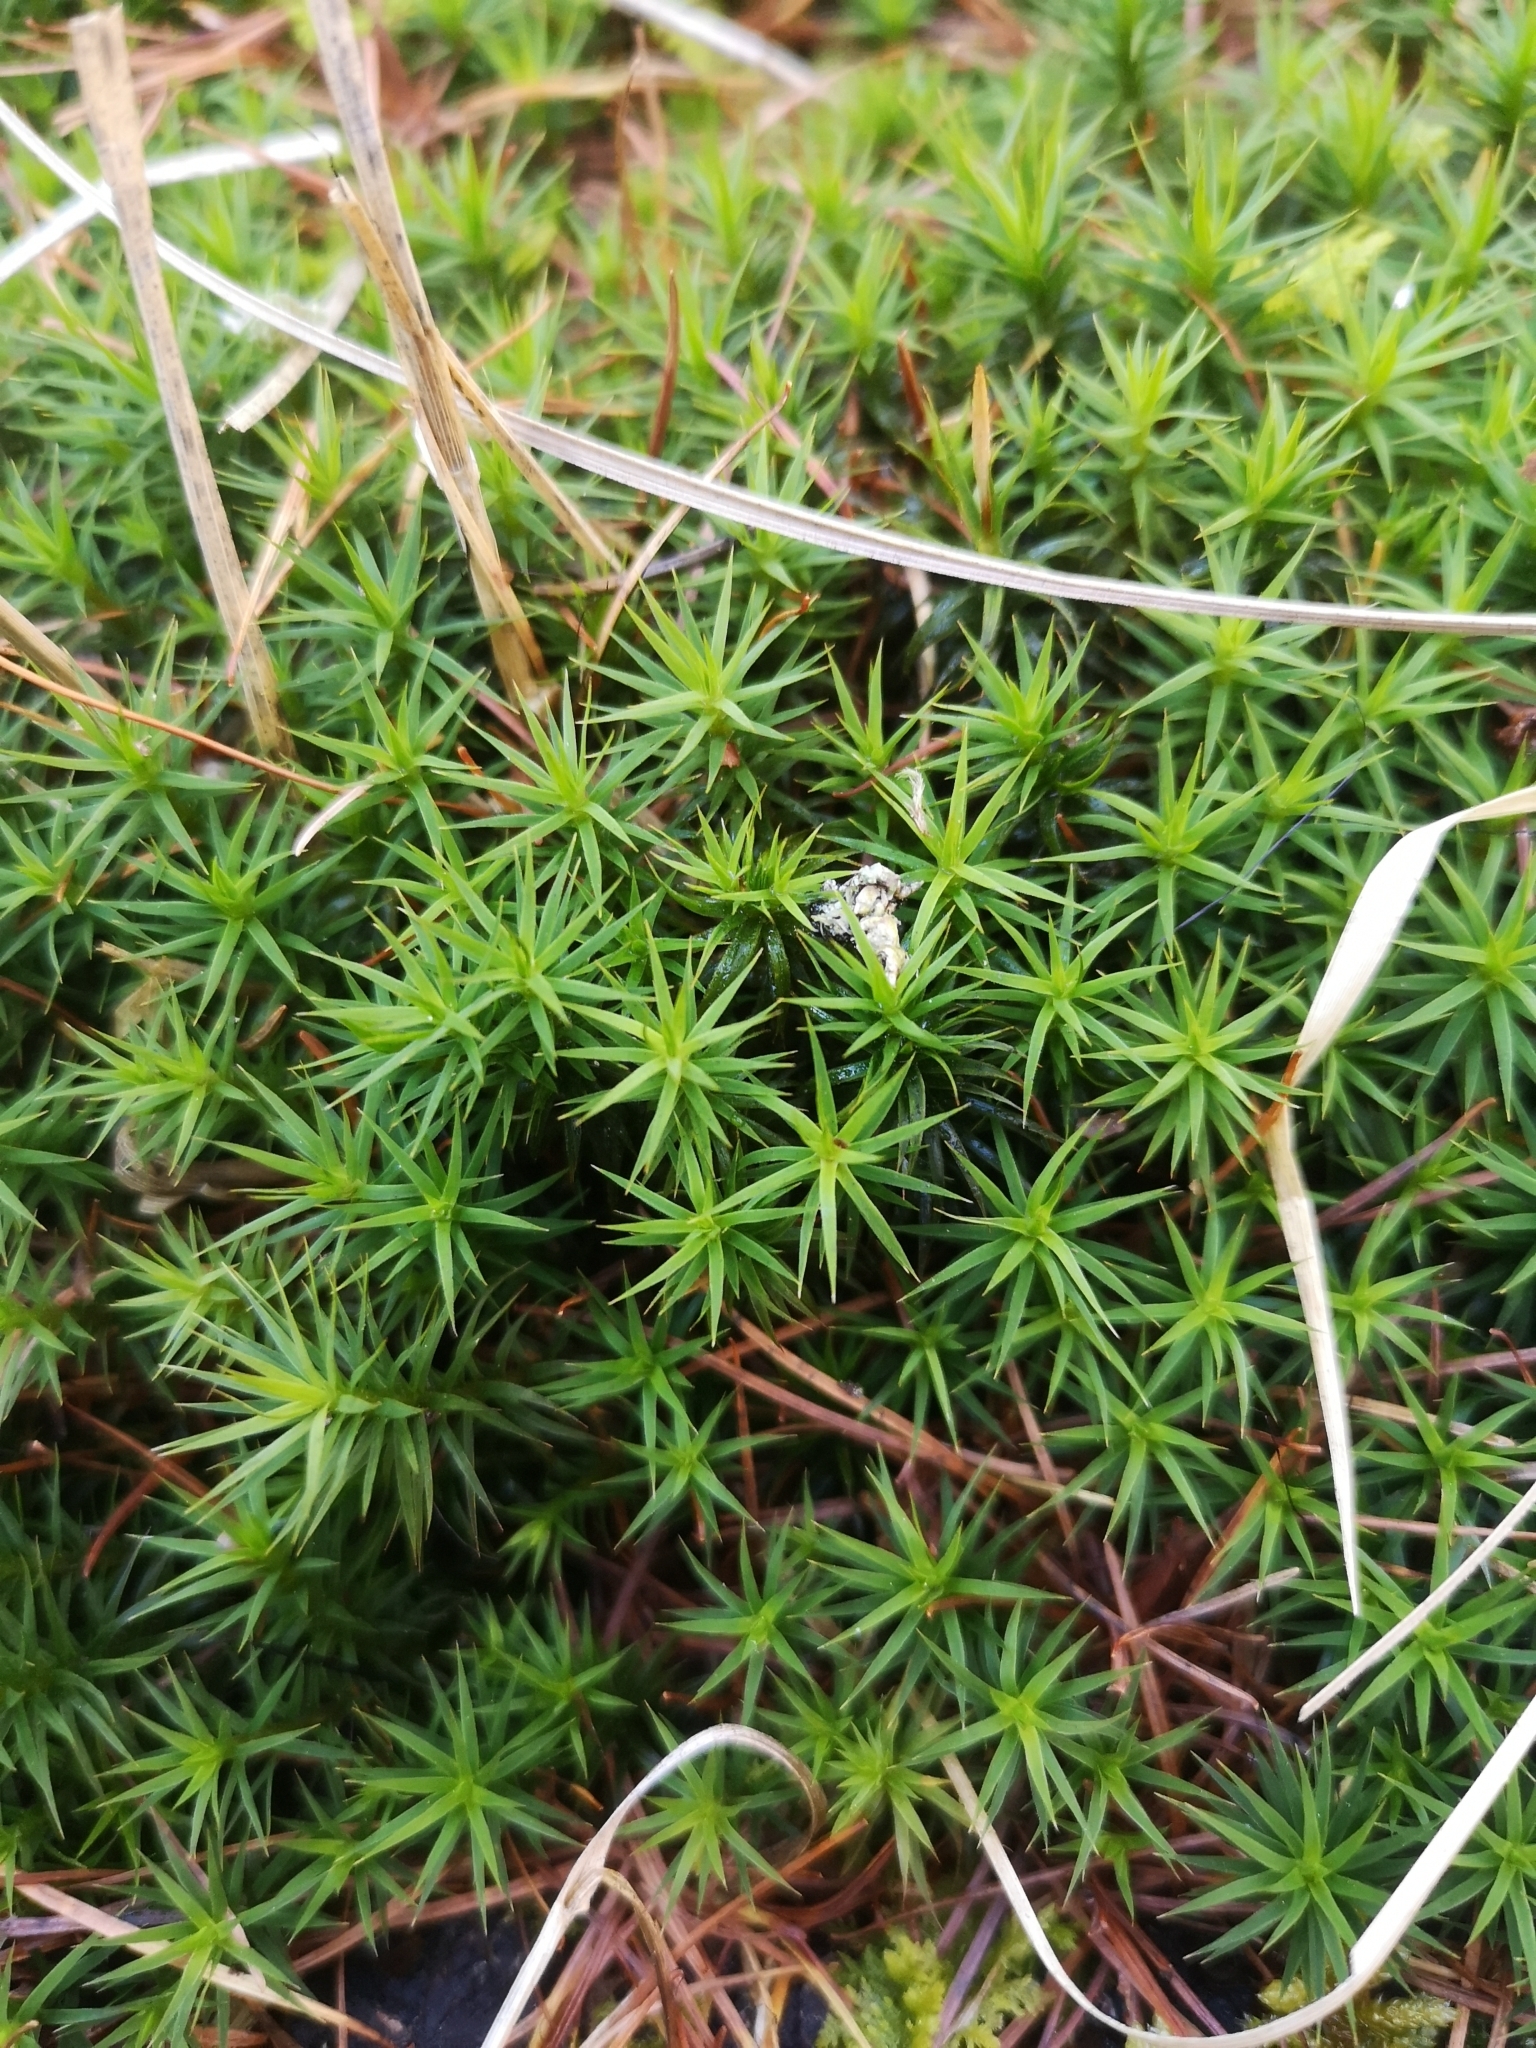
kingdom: Plantae
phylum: Bryophyta
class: Polytrichopsida
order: Polytrichales
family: Polytrichaceae
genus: Polytrichum
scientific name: Polytrichum formosum
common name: Bank haircap moss
